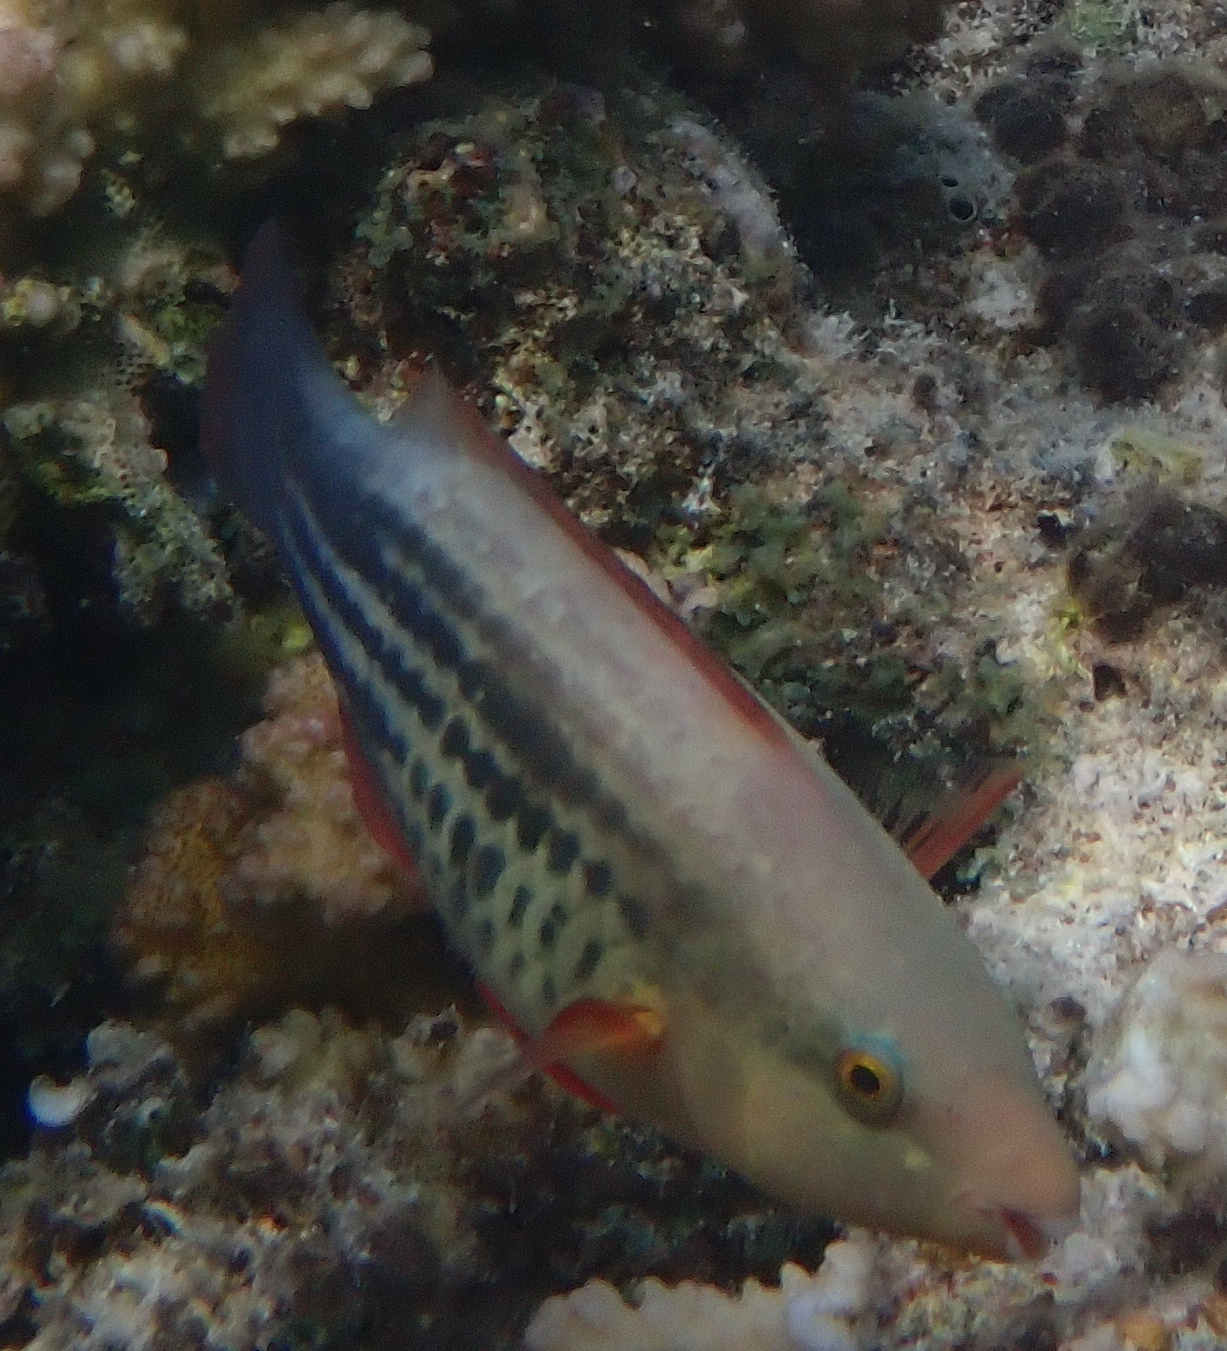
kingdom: Animalia
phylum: Chordata
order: Perciformes
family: Scaridae
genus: Scarus
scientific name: Scarus frenatus
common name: Bridled parrotfish
